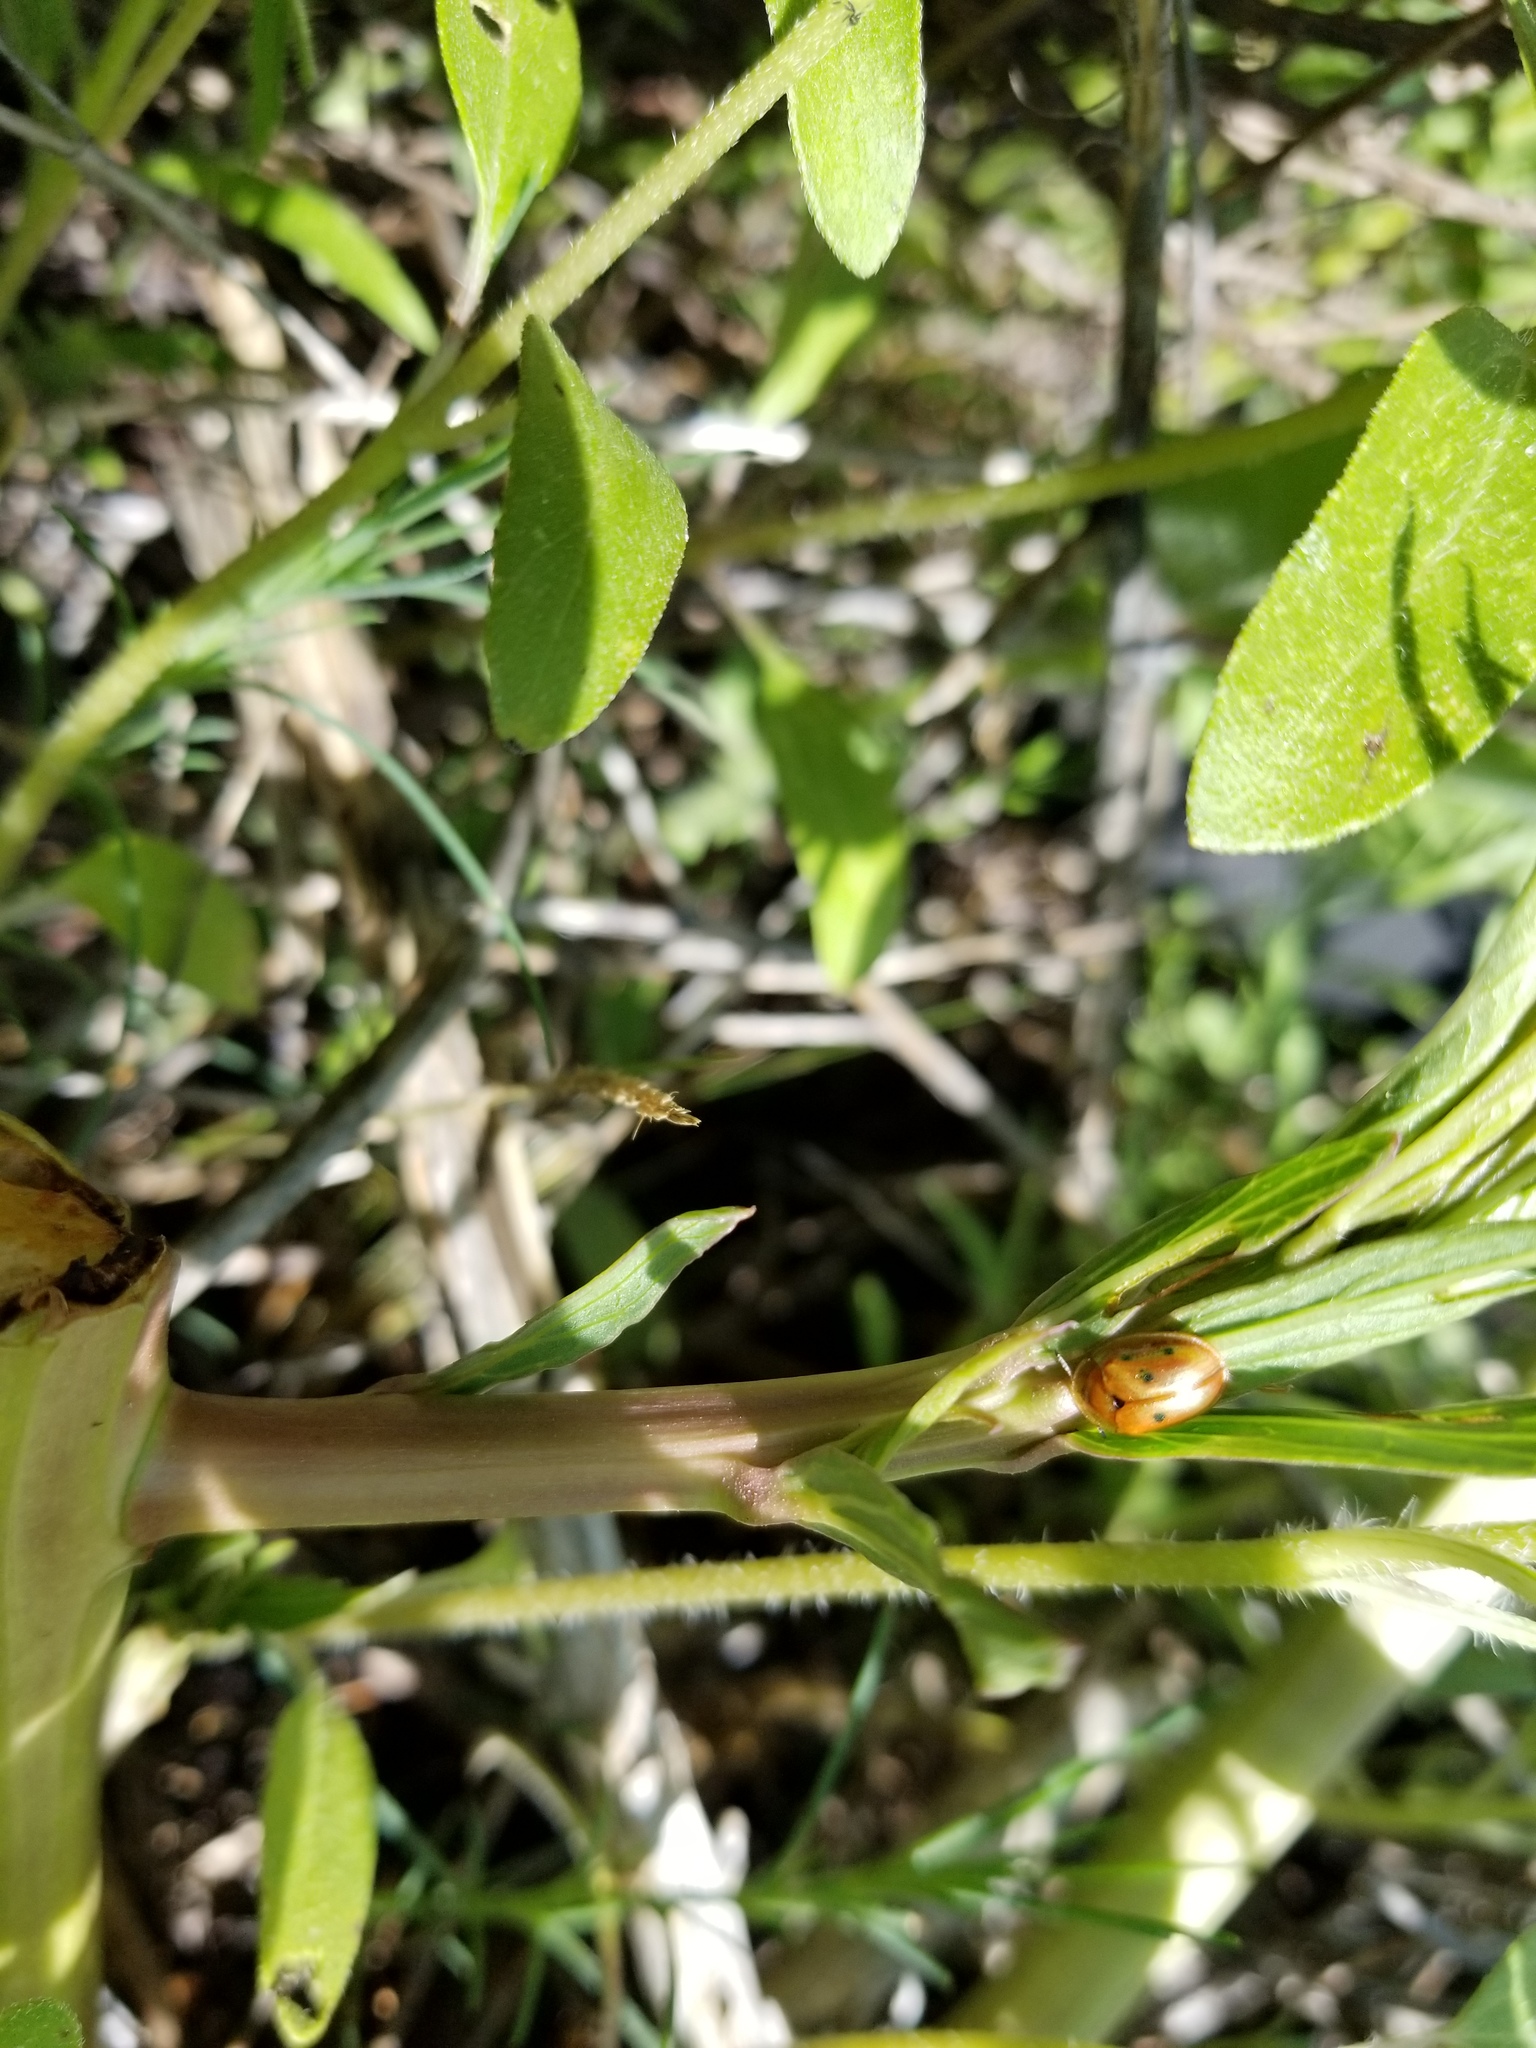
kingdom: Animalia
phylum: Arthropoda
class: Insecta
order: Coleoptera
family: Chrysomelidae
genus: Jonthonota
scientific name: Jonthonota nigripes
